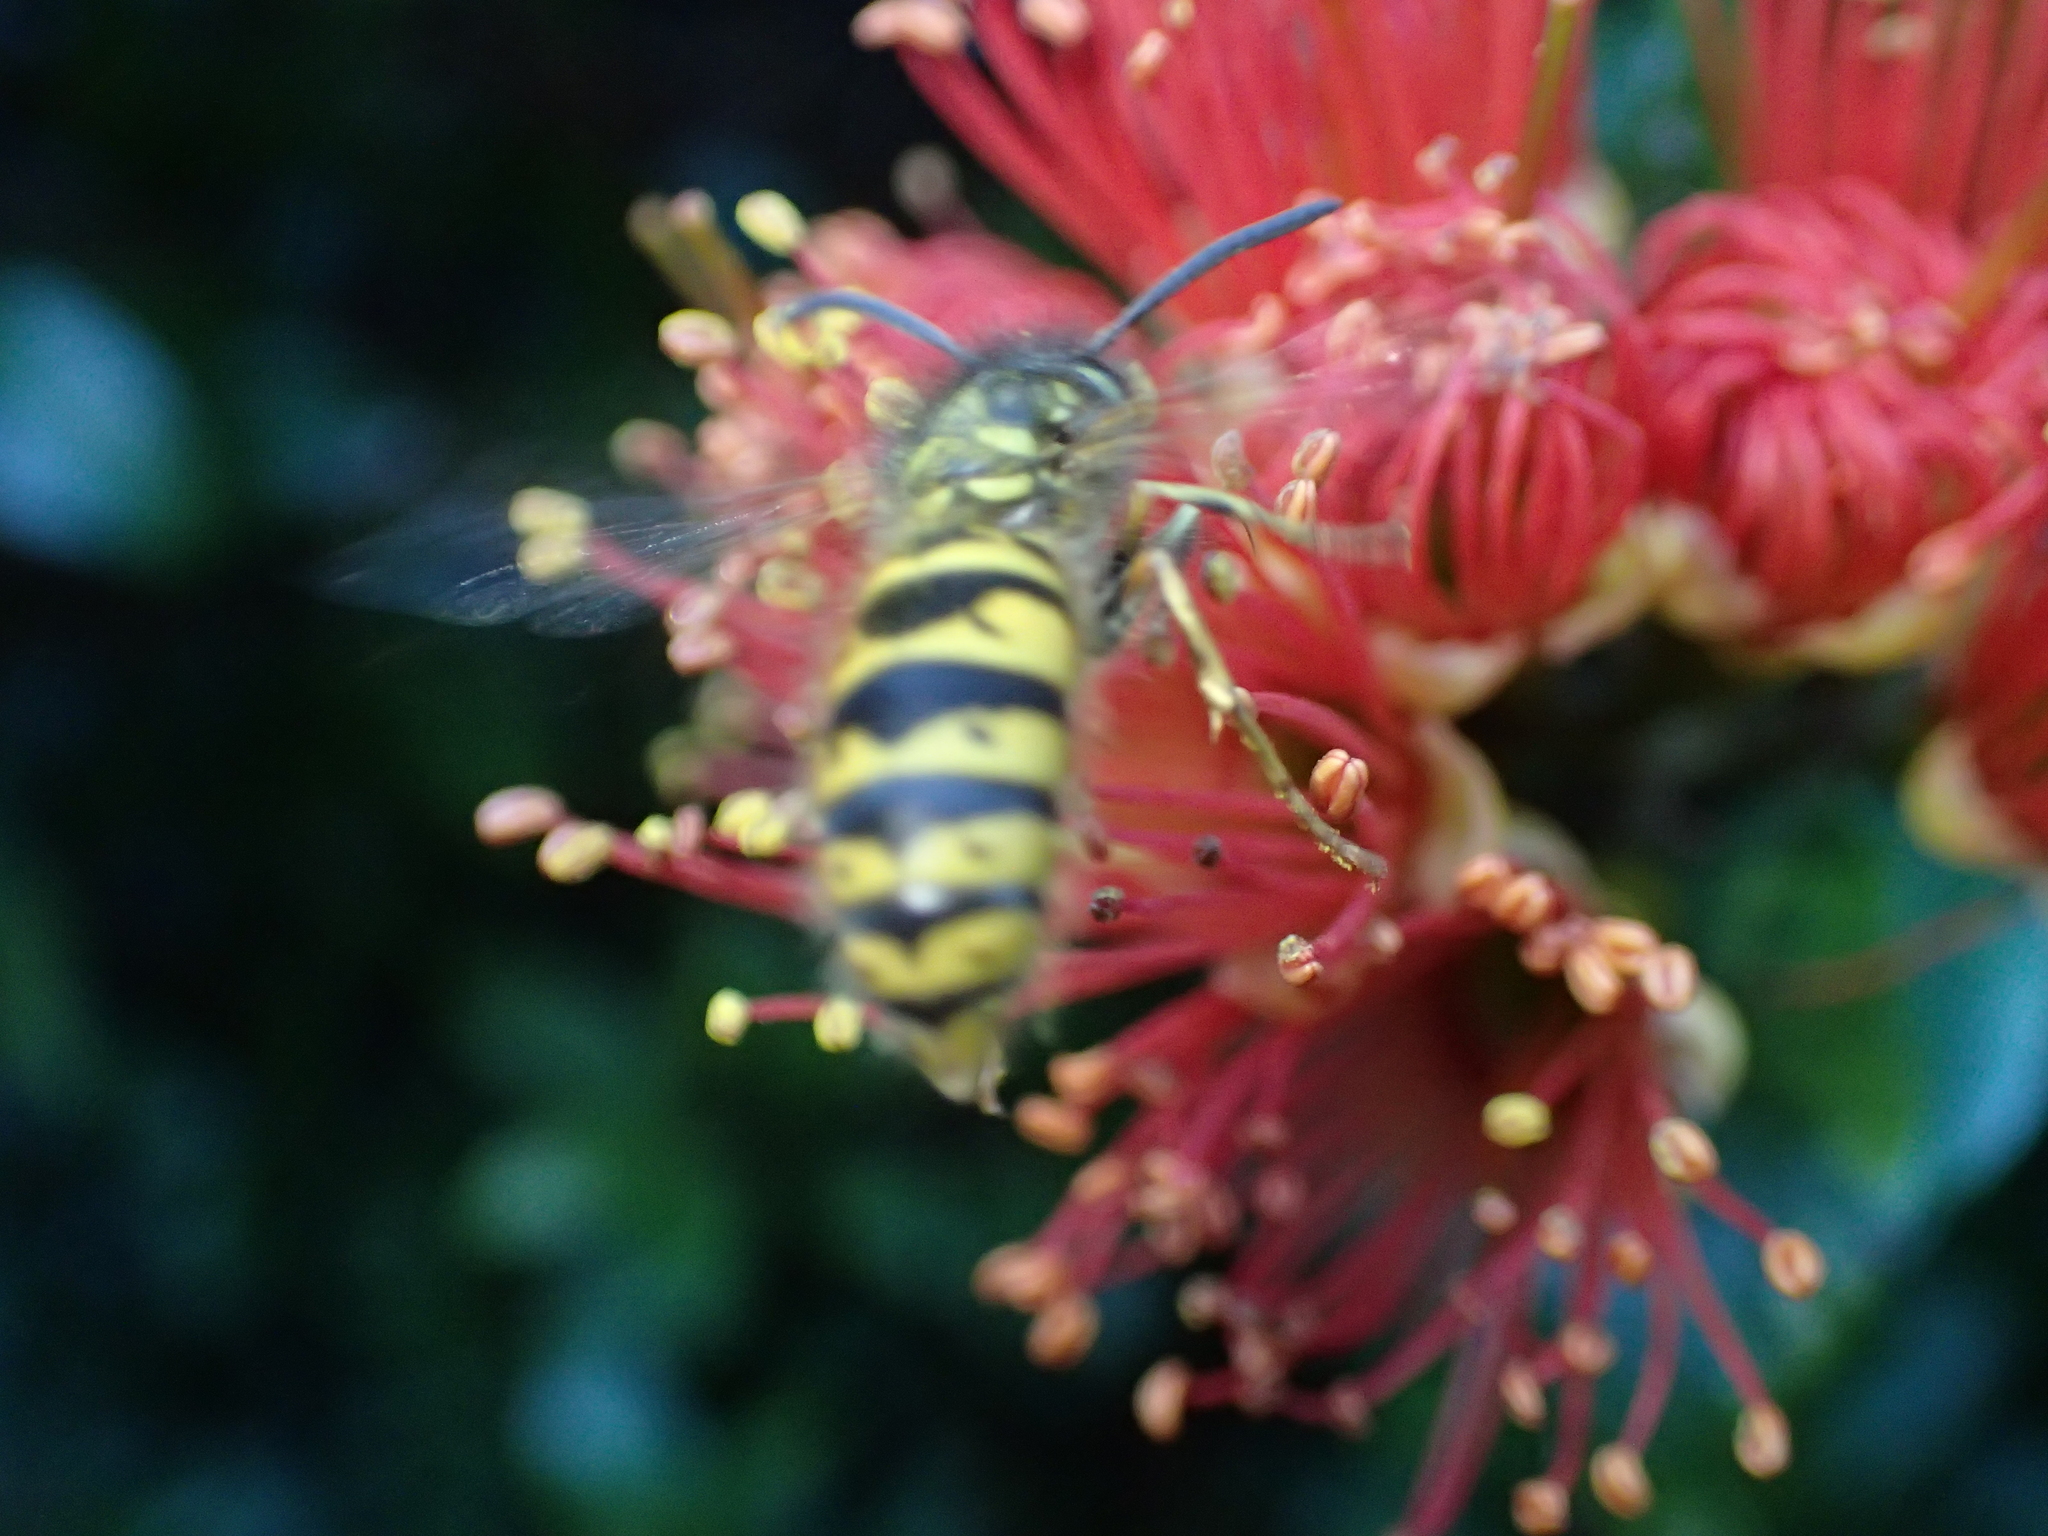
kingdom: Animalia
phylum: Arthropoda
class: Insecta
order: Hymenoptera
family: Vespidae
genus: Vespula
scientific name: Vespula vulgaris
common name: Common wasp
